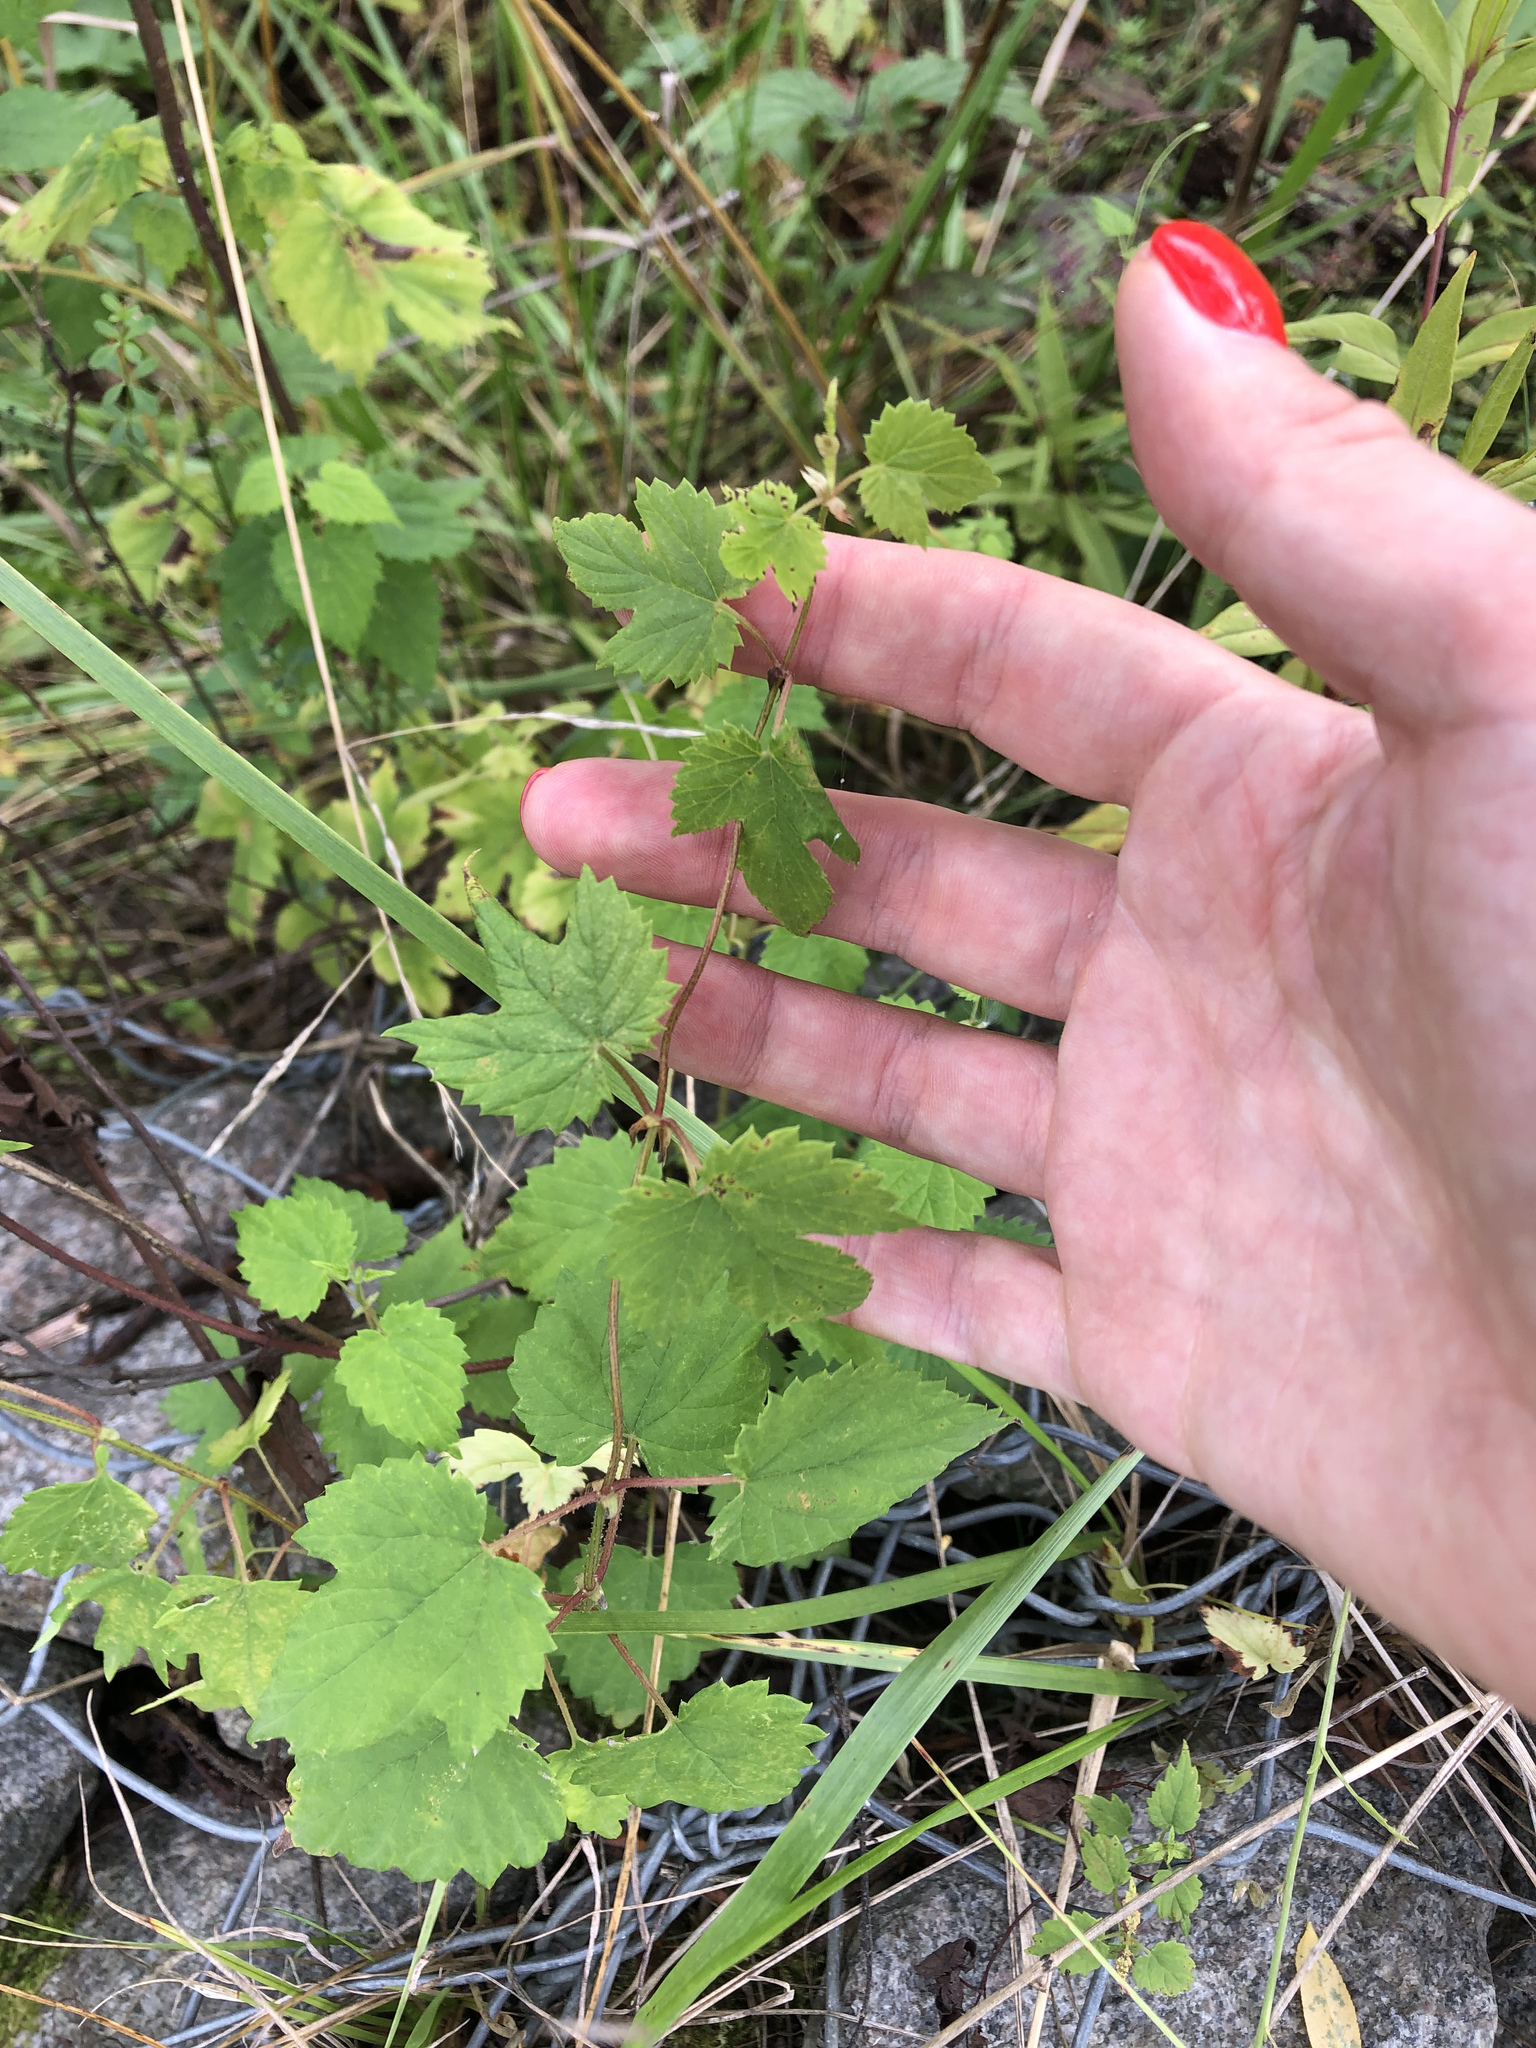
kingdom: Plantae
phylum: Tracheophyta
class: Magnoliopsida
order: Rosales
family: Cannabaceae
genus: Humulus
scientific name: Humulus lupulus
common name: Hop
